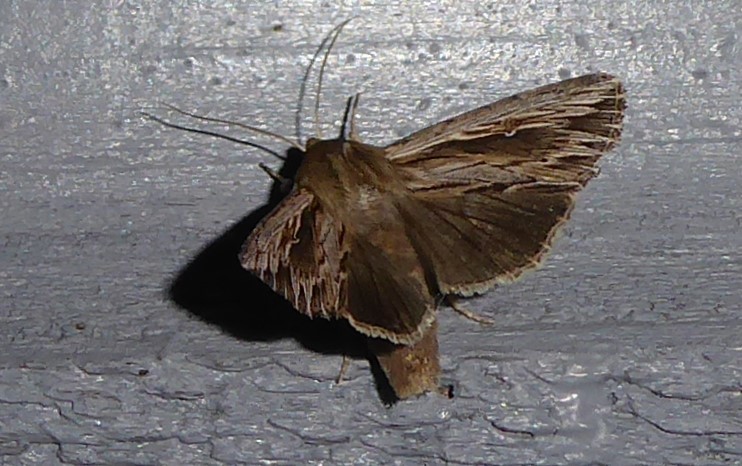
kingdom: Animalia
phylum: Arthropoda
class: Insecta
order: Lepidoptera
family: Noctuidae
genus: Persectania
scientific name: Persectania aversa
